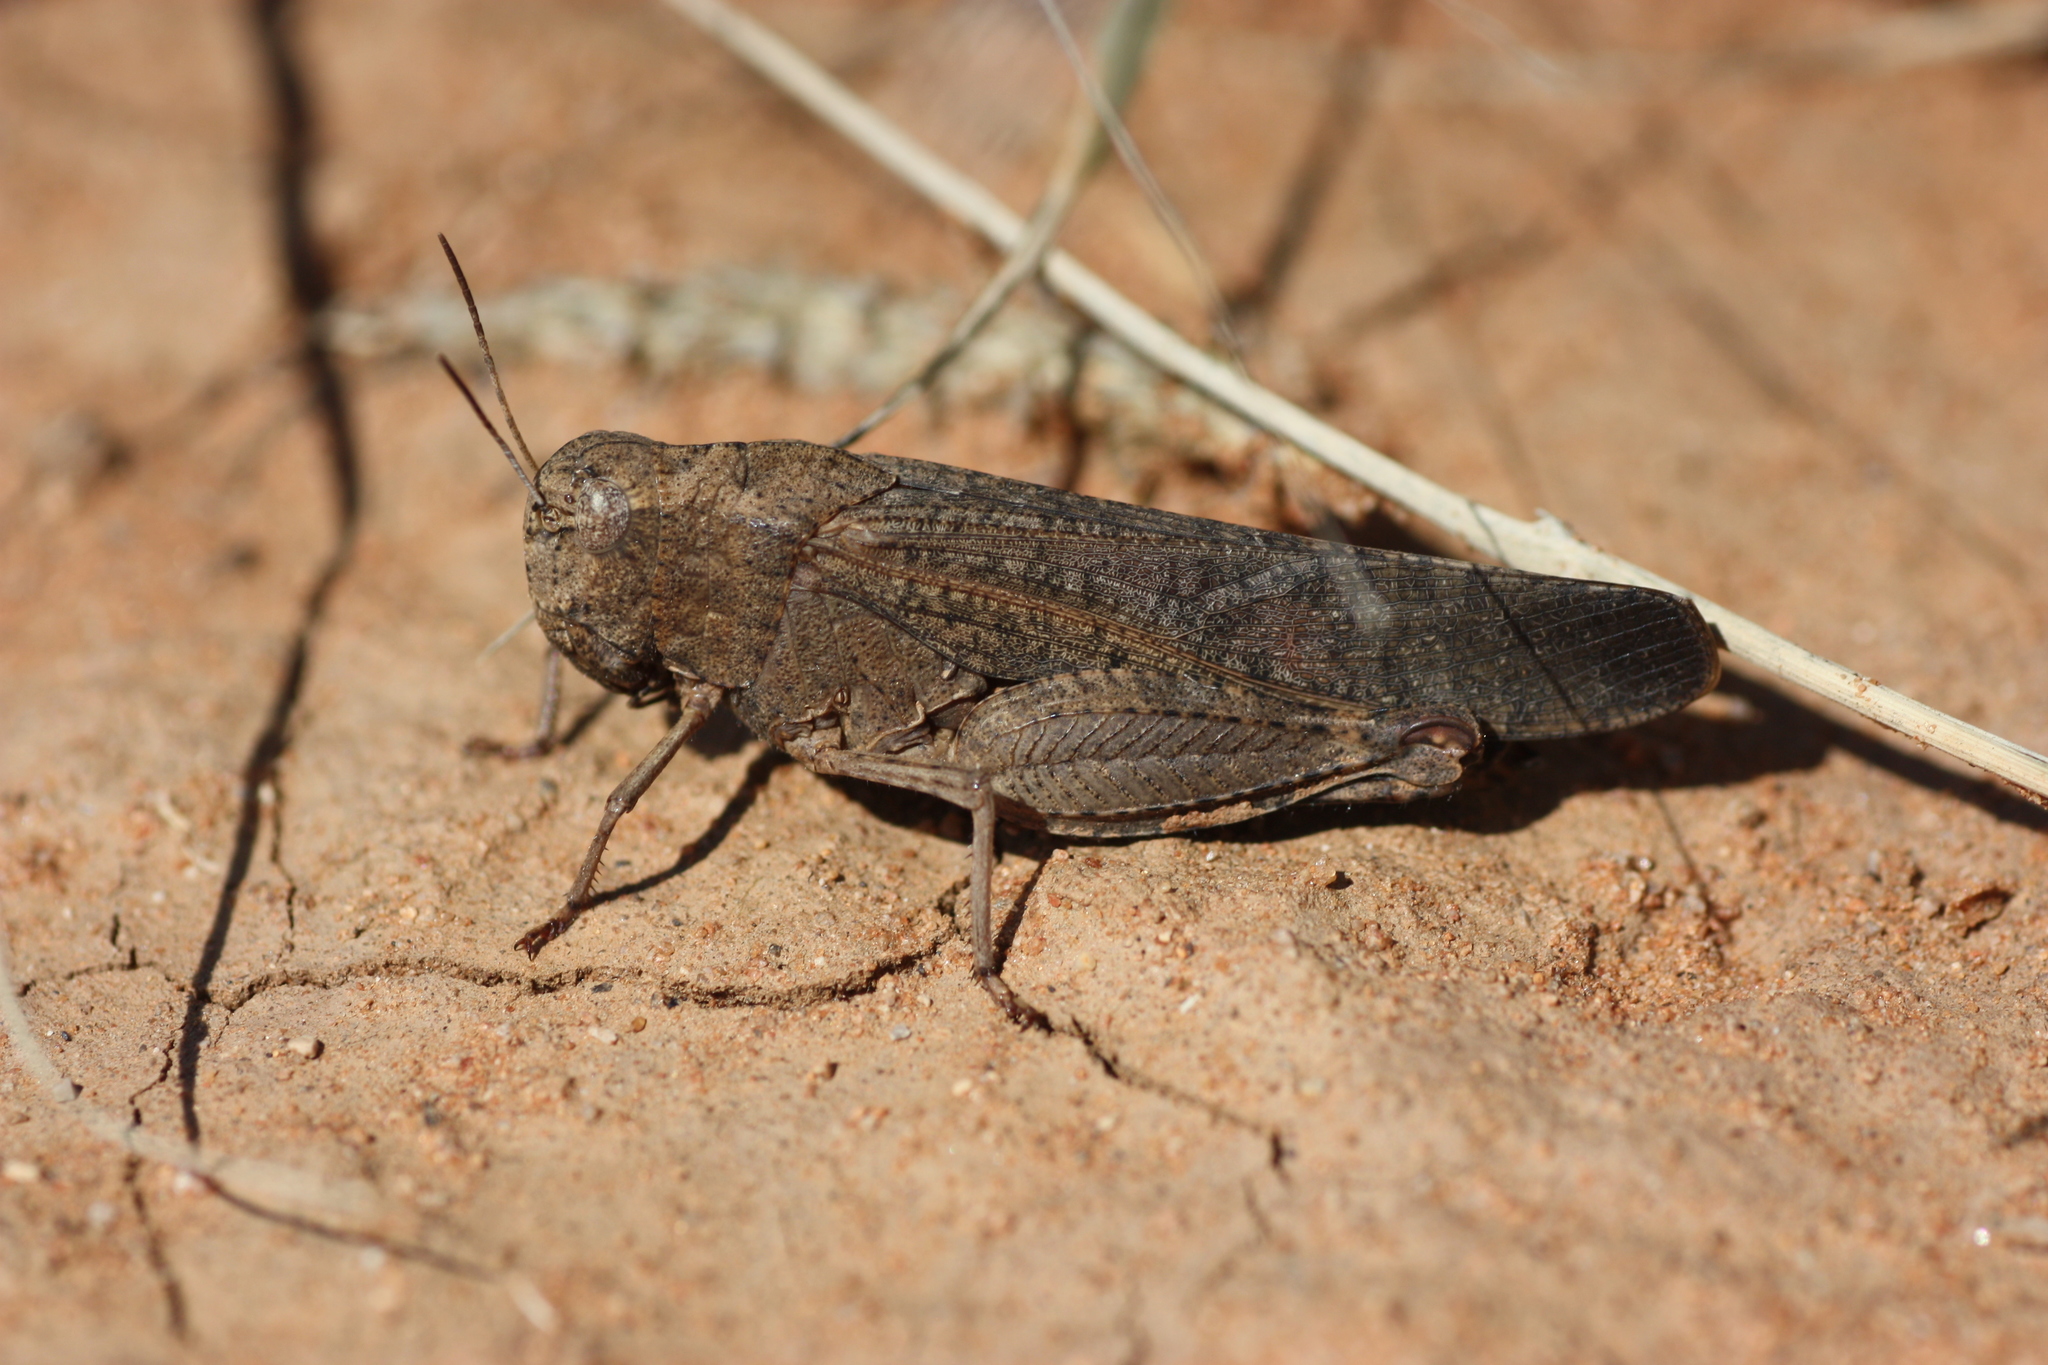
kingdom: Animalia
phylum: Arthropoda
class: Insecta
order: Orthoptera
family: Acrididae
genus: Arphia
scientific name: Arphia pseudo-nietana
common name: Red-winged grasshopper
